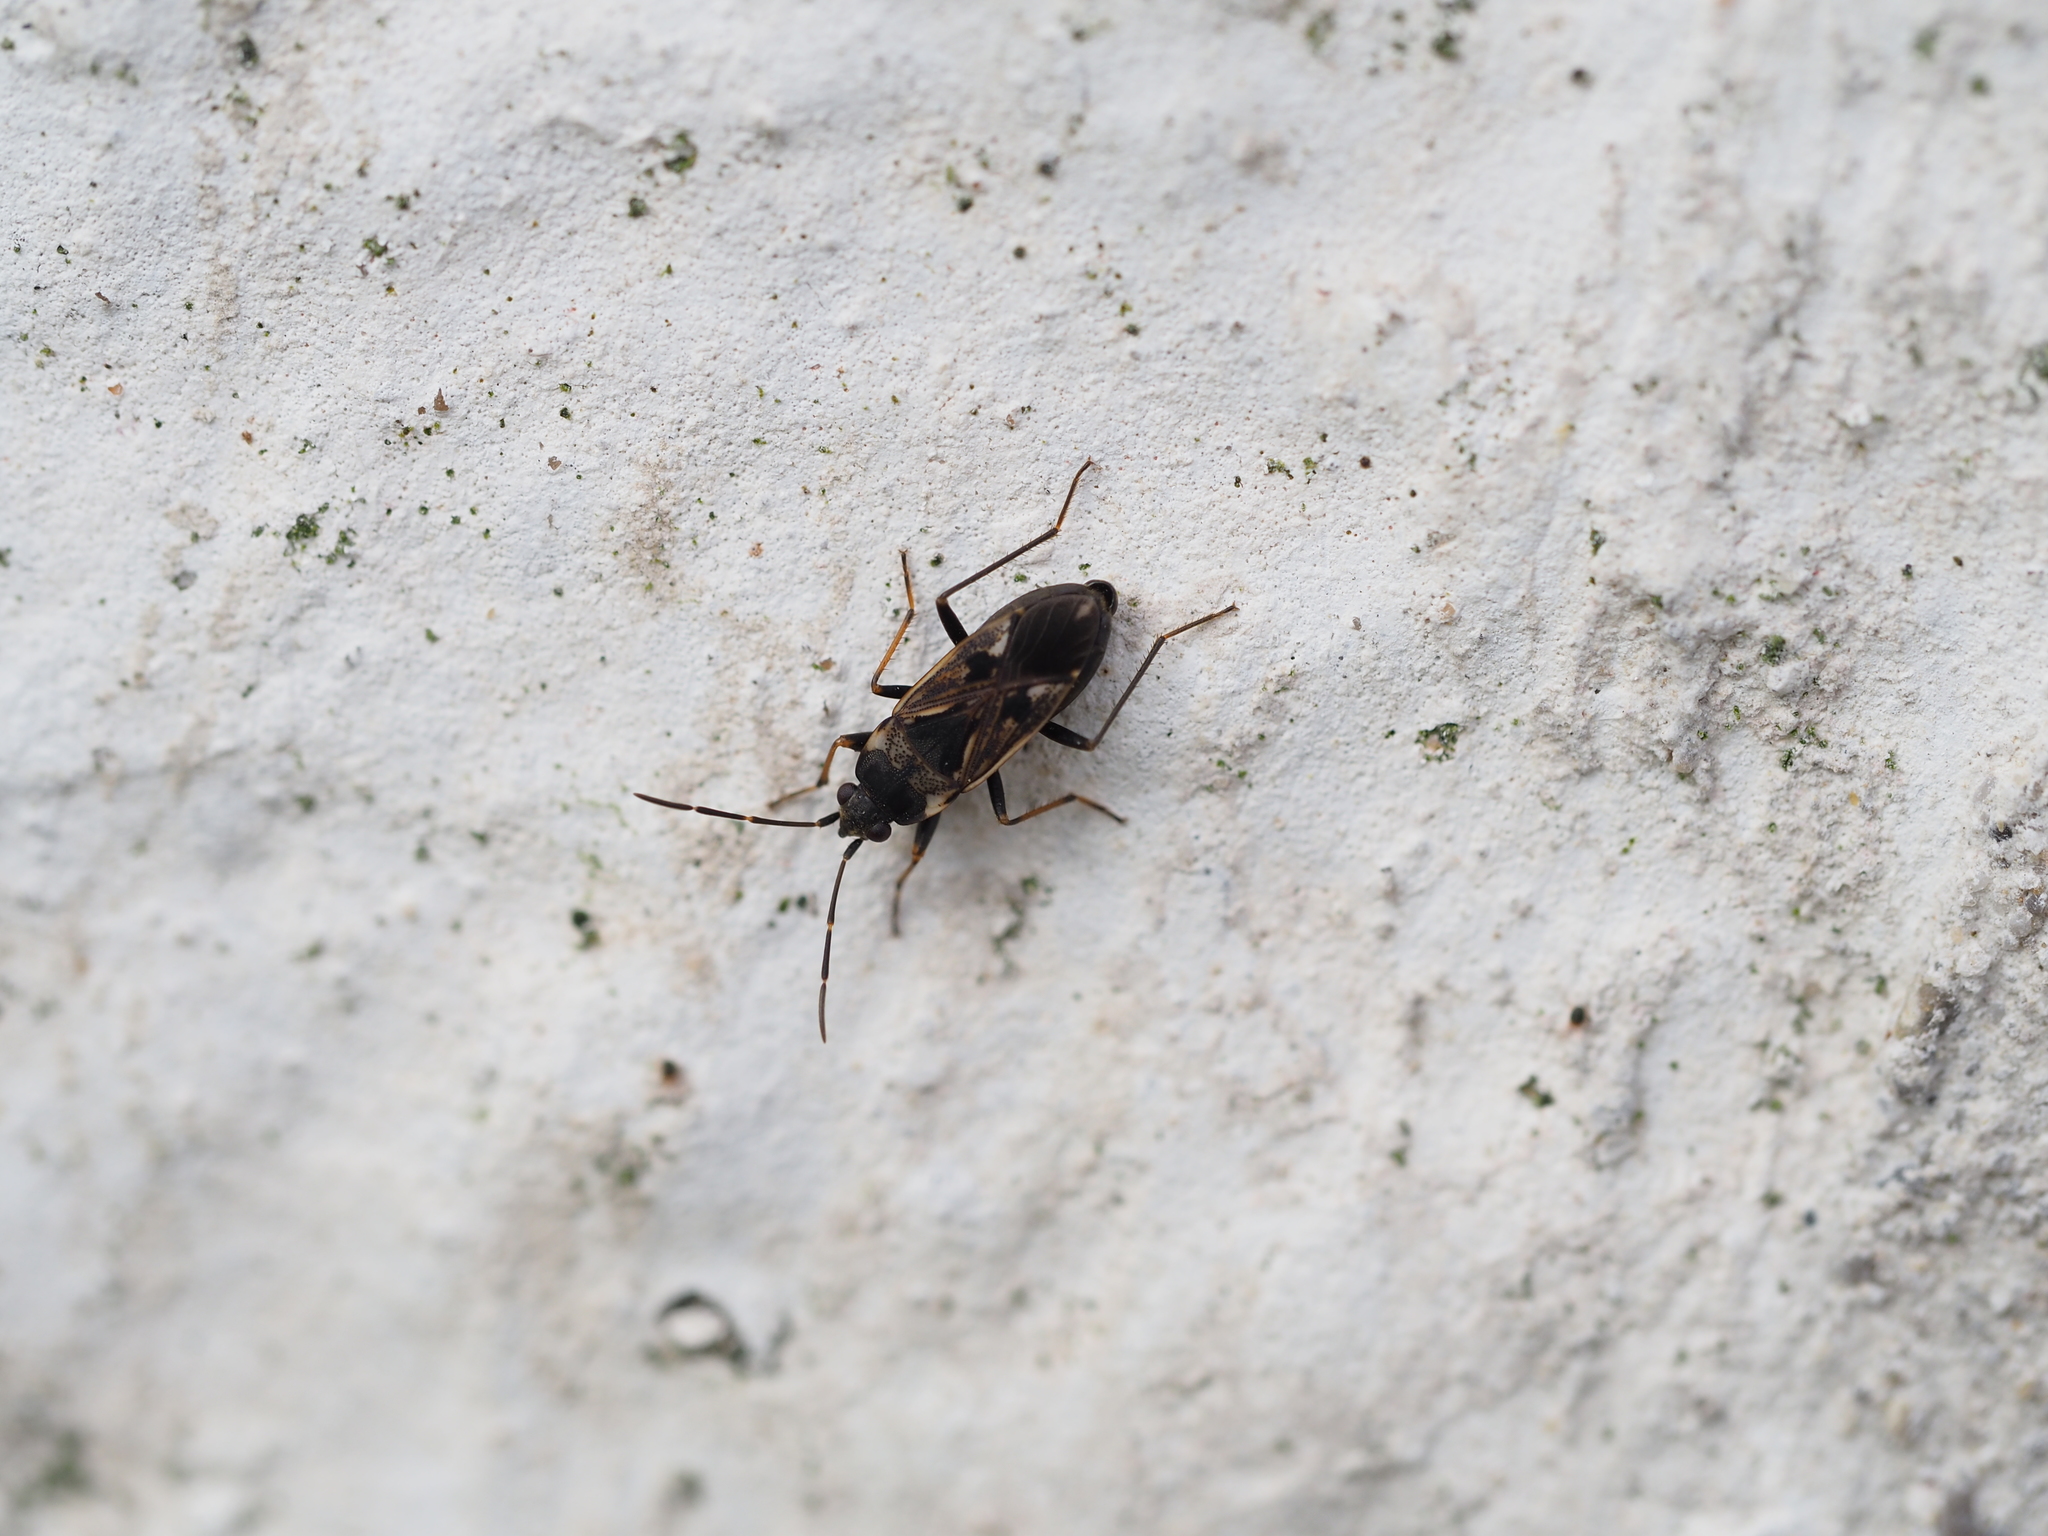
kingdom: Animalia
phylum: Arthropoda
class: Insecta
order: Hemiptera
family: Rhyparochromidae
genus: Rhyparochromus
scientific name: Rhyparochromus vulgaris
